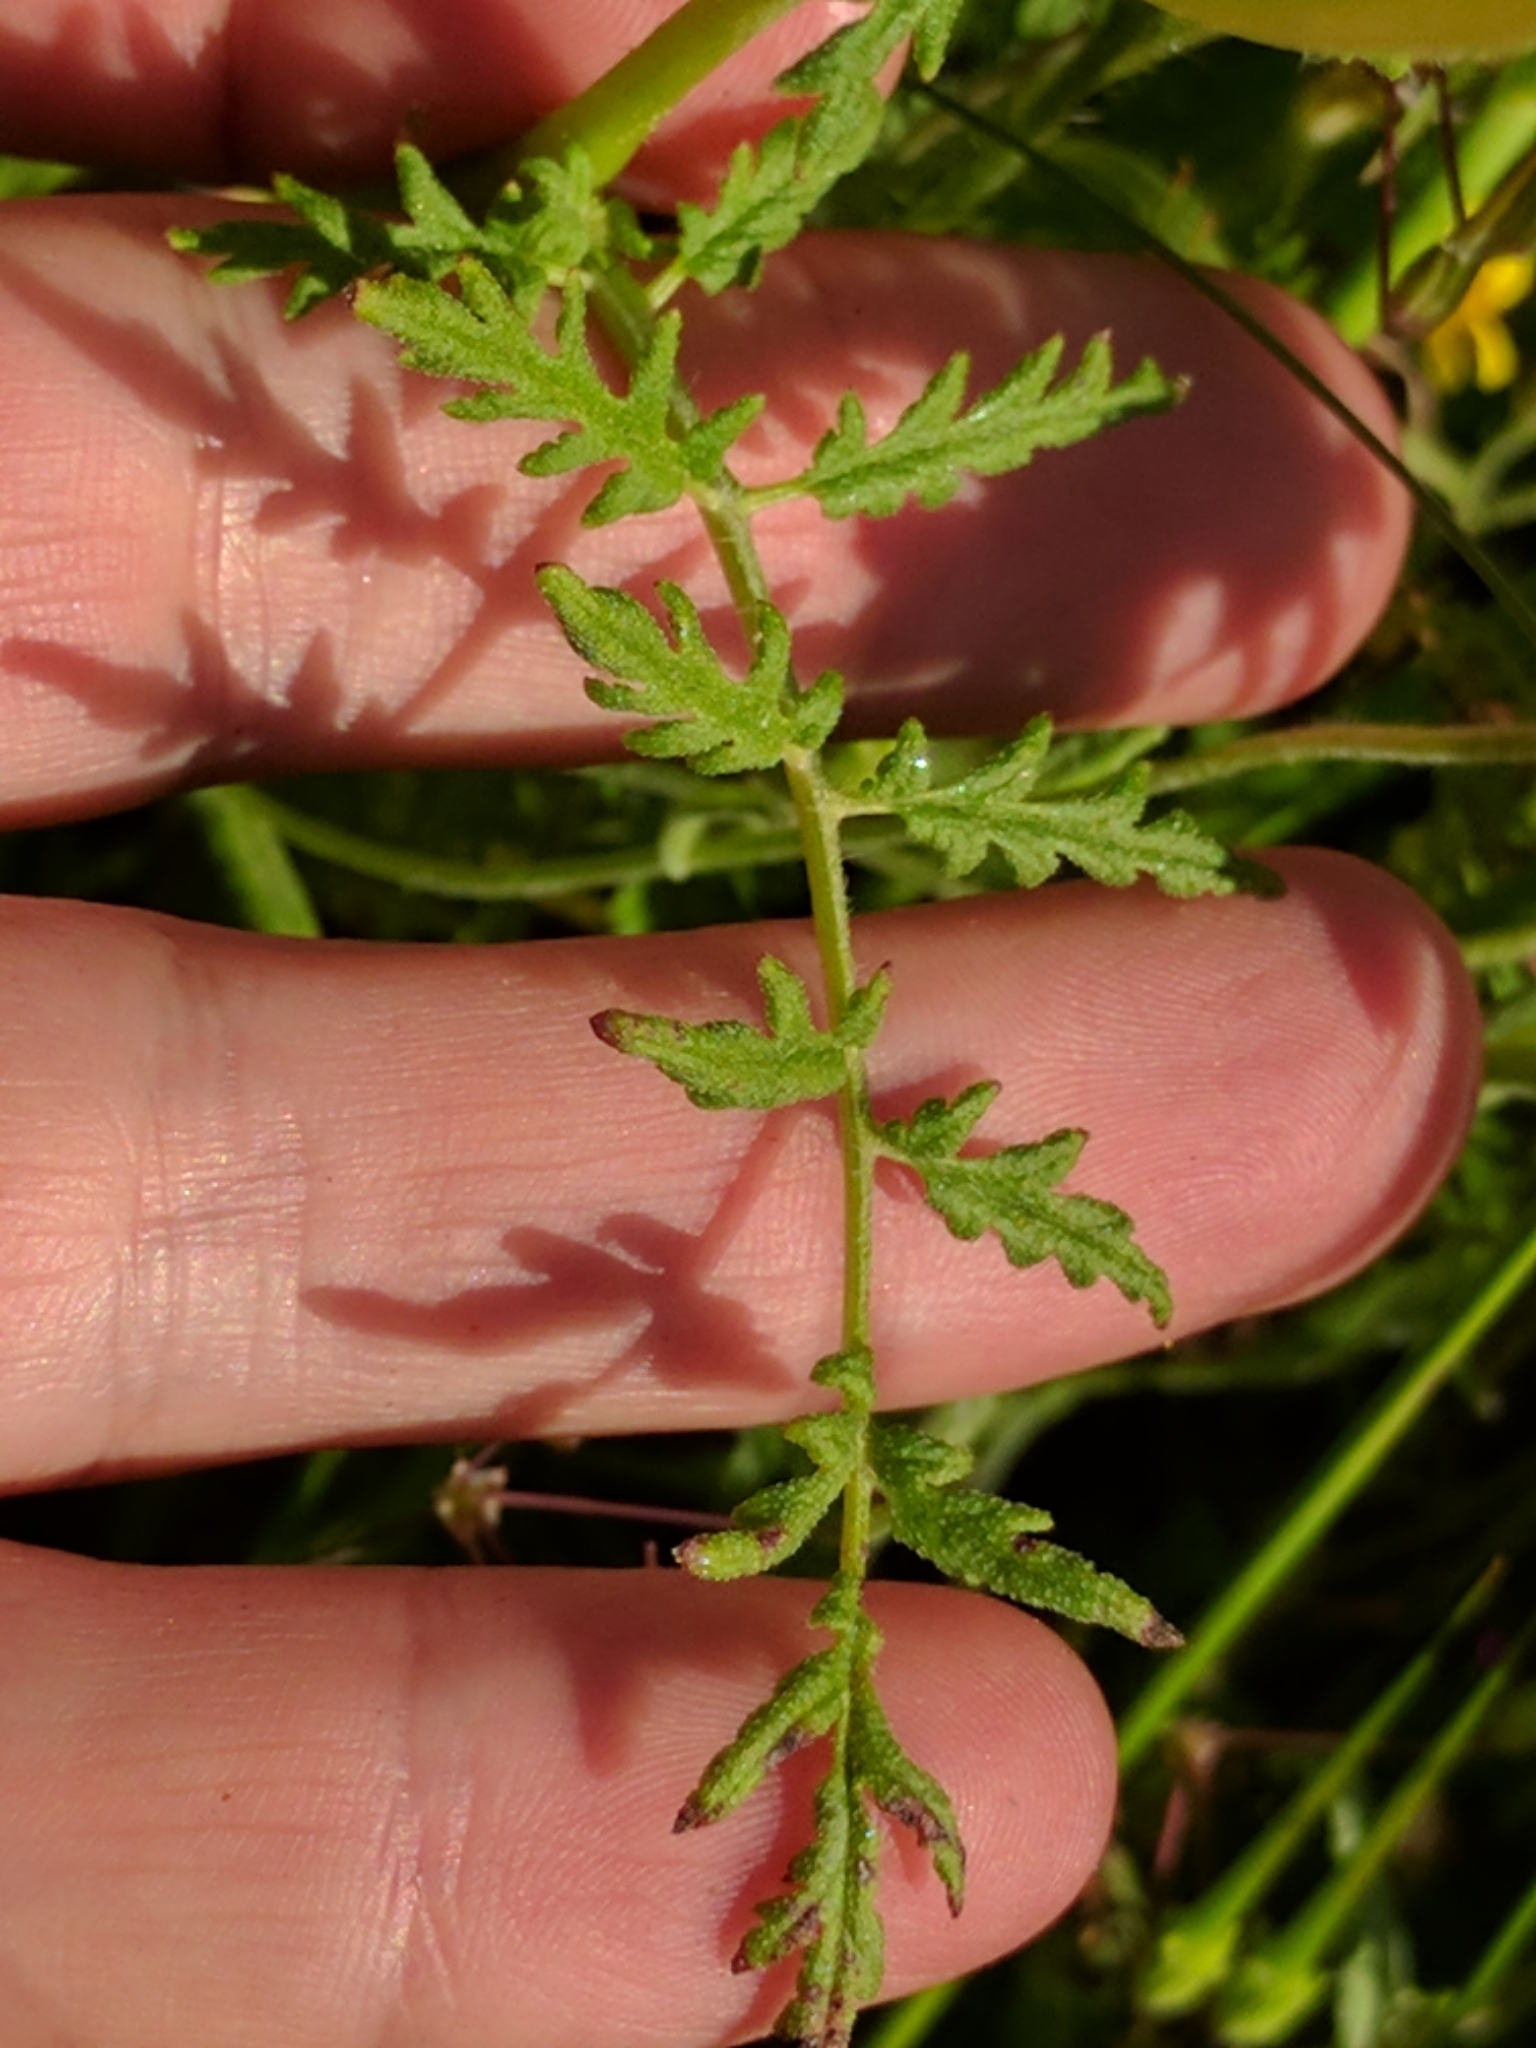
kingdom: Plantae
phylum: Tracheophyta
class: Magnoliopsida
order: Boraginales
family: Hydrophyllaceae
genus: Phacelia
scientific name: Phacelia tanacetifolia
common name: Phacelia
